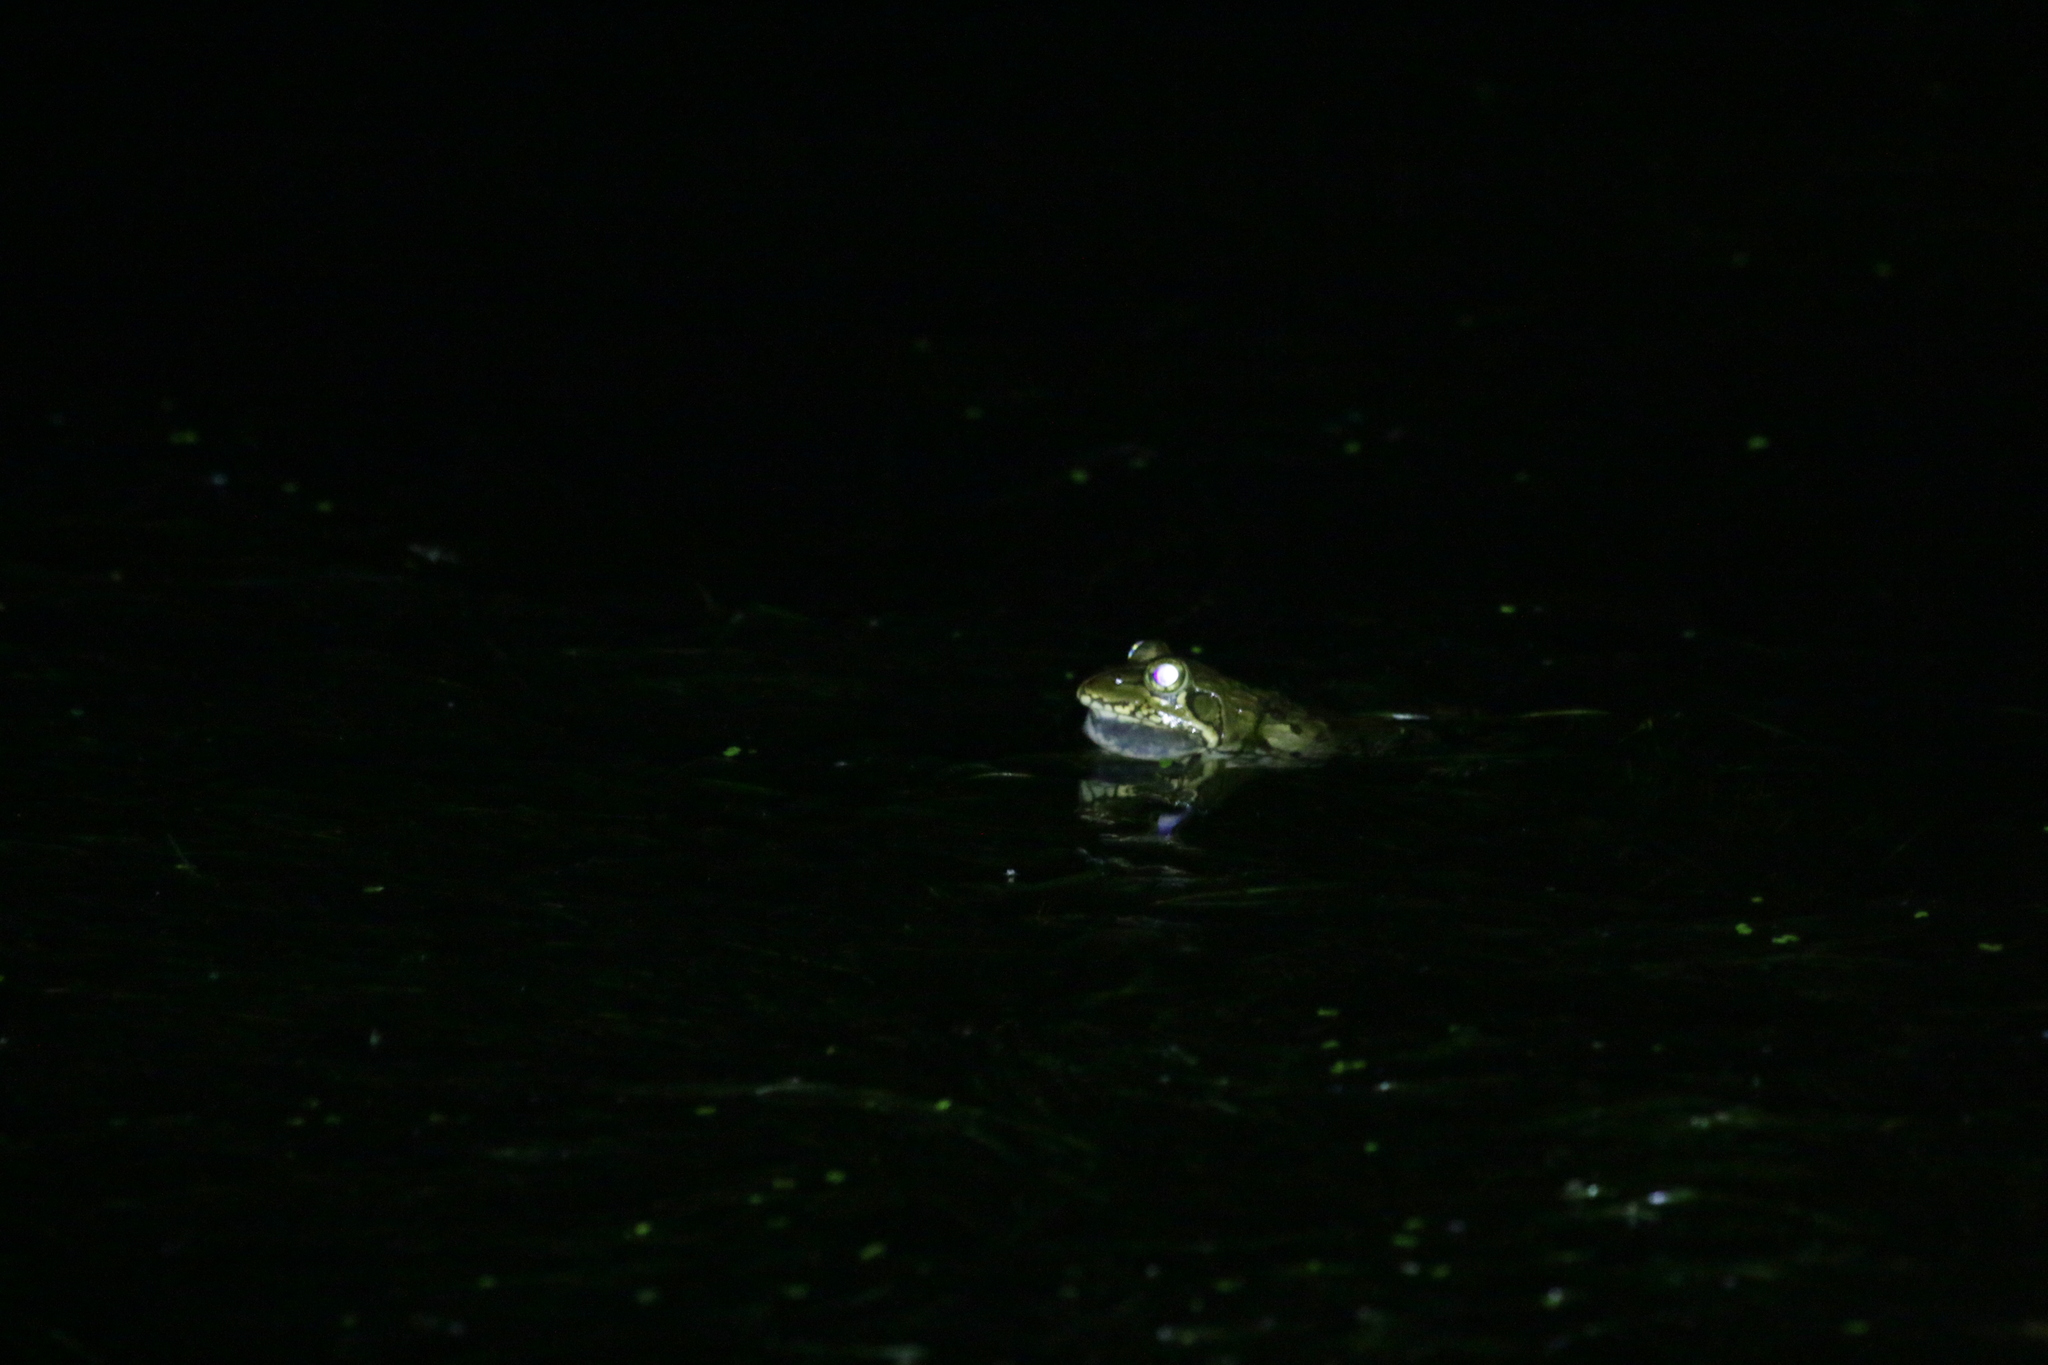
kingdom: Animalia
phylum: Chordata
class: Amphibia
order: Anura
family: Pyxicephalidae
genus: Amietia
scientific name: Amietia poyntoni
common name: Poynton's river frog
